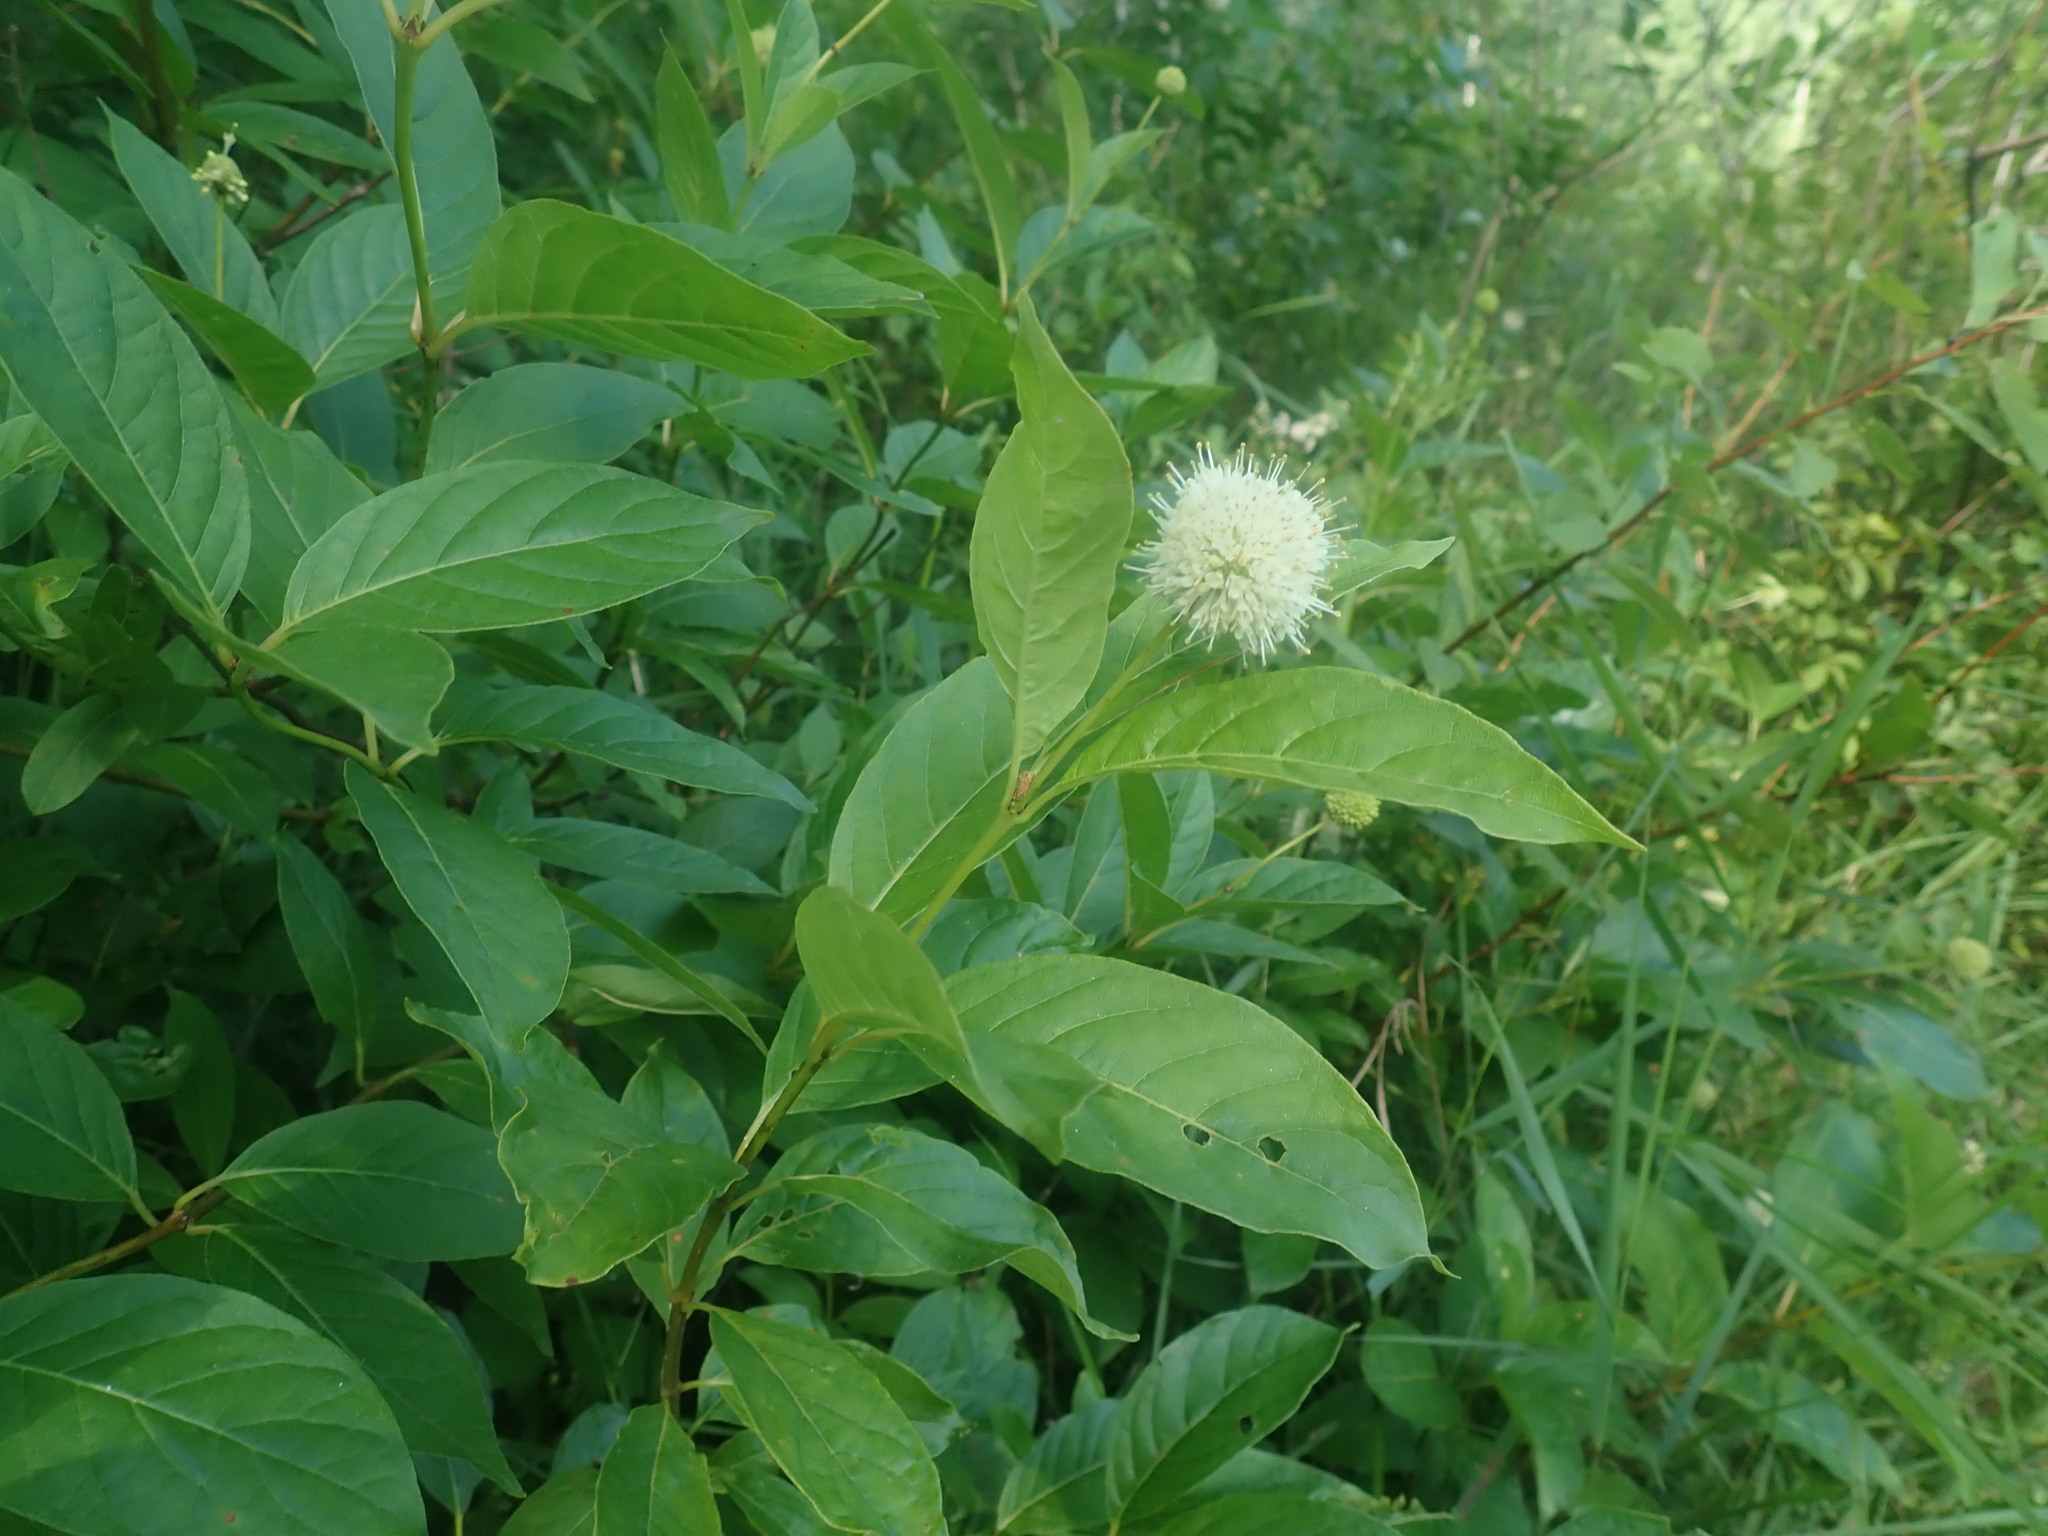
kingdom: Plantae
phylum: Tracheophyta
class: Magnoliopsida
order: Gentianales
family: Rubiaceae
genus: Cephalanthus
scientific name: Cephalanthus occidentalis
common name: Button-willow
